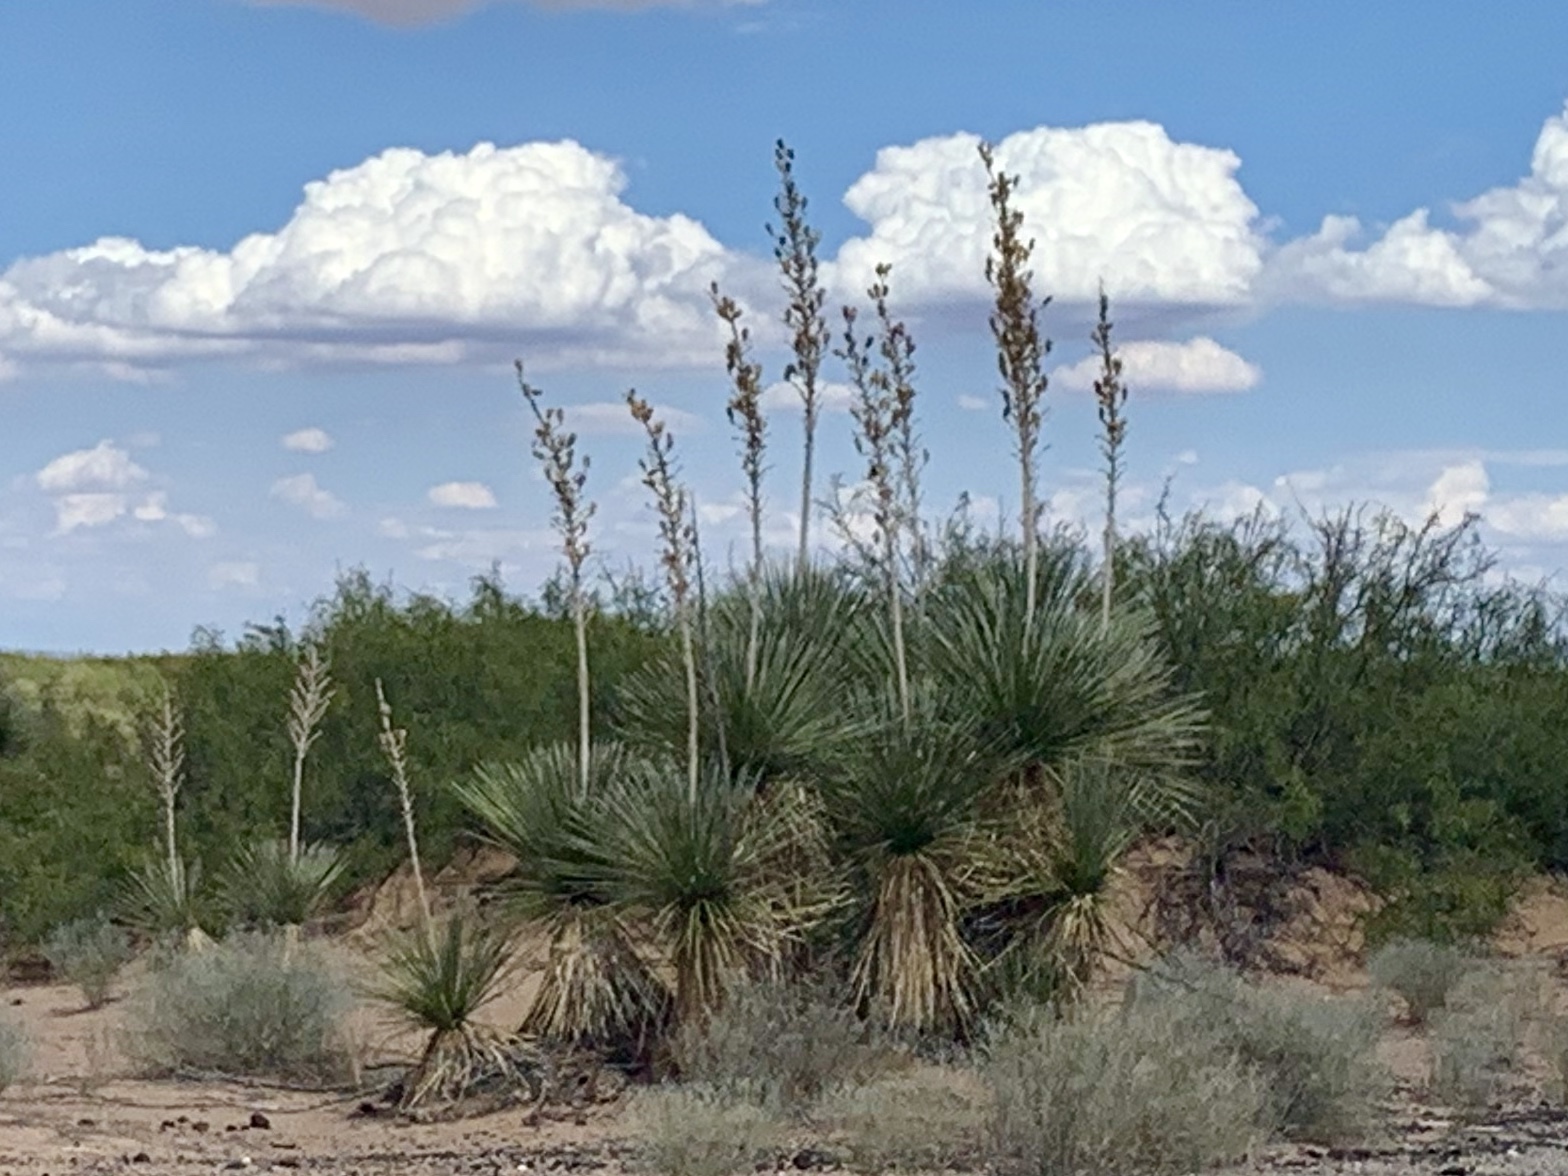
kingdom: Plantae
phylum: Tracheophyta
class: Liliopsida
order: Asparagales
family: Asparagaceae
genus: Yucca
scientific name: Yucca elata
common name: Palmella
